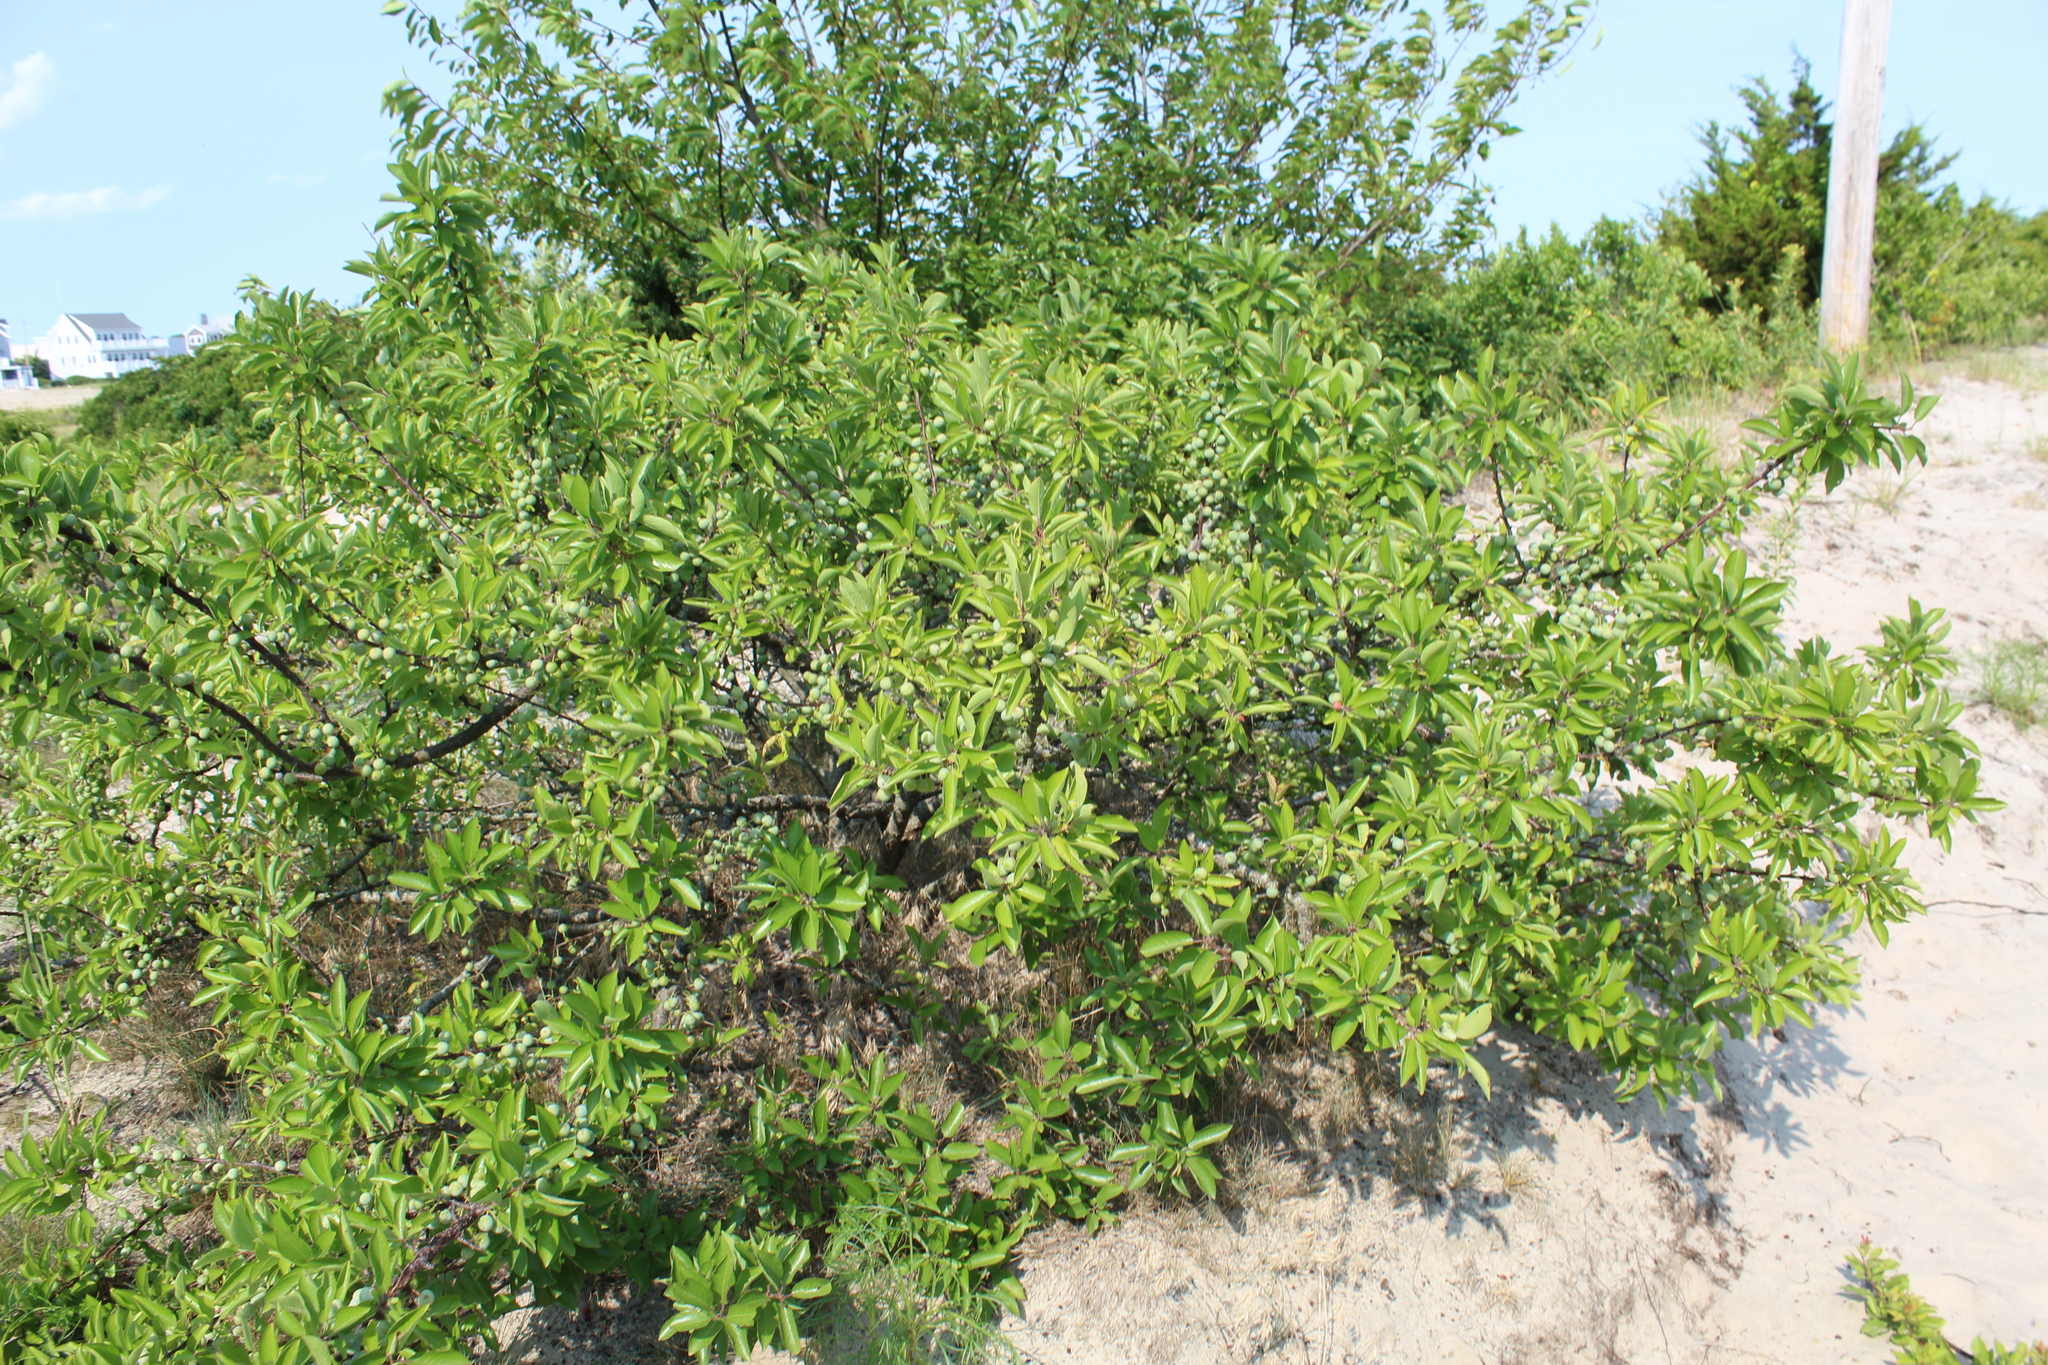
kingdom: Plantae
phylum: Tracheophyta
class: Magnoliopsida
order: Rosales
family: Rosaceae
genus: Prunus
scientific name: Prunus maritima
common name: Beach plum
